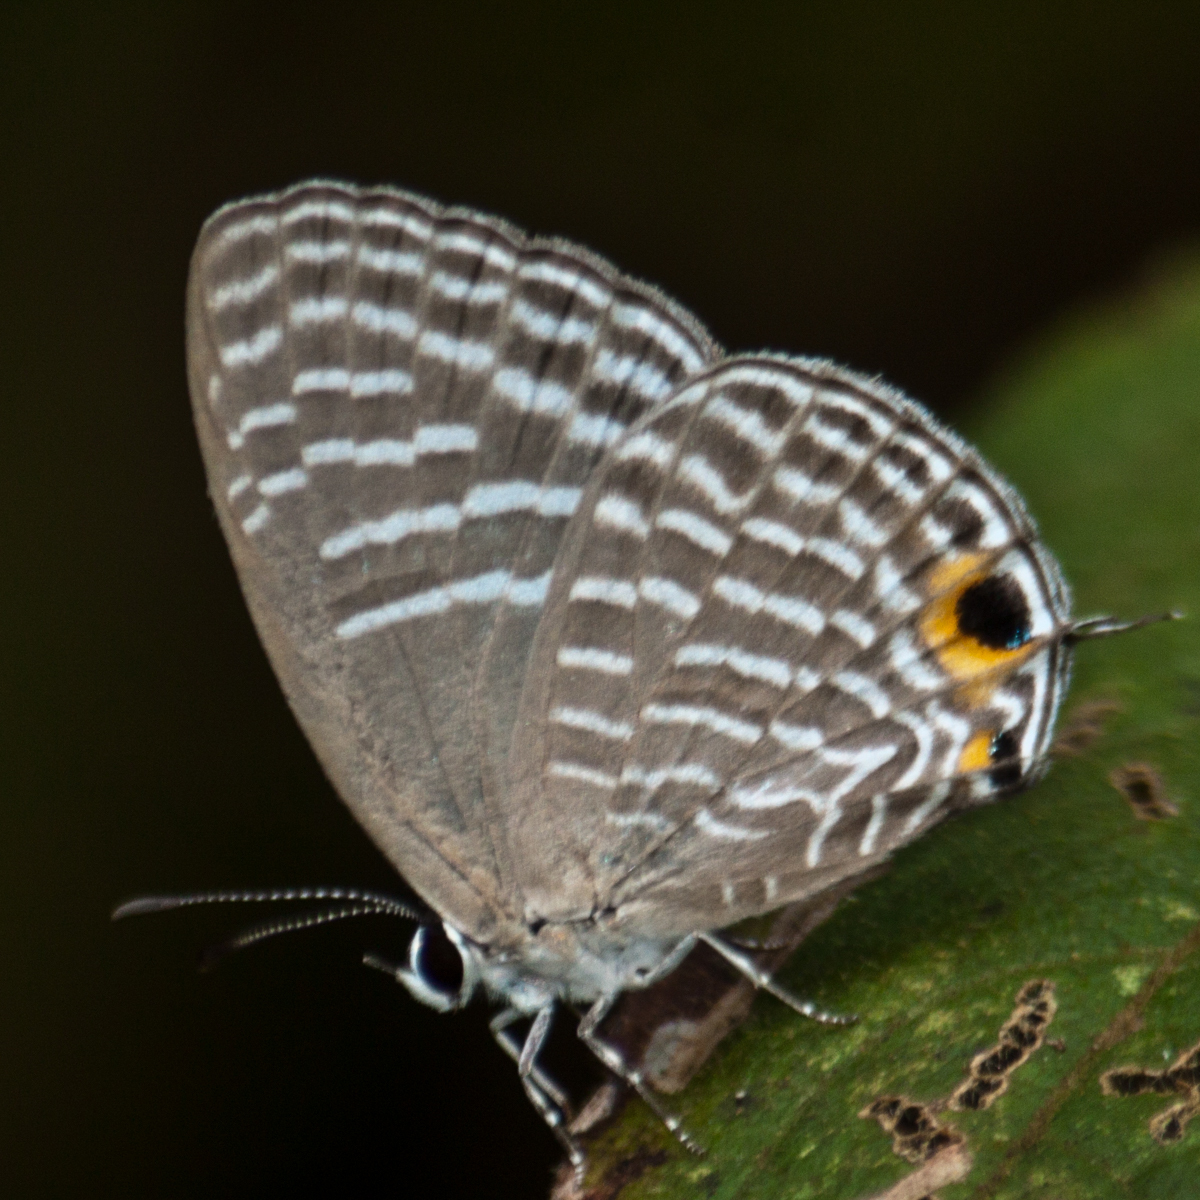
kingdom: Animalia
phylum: Arthropoda
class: Insecta
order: Lepidoptera
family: Lycaenidae
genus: Jamides
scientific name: Jamides alecto
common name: Metallic cerulean
